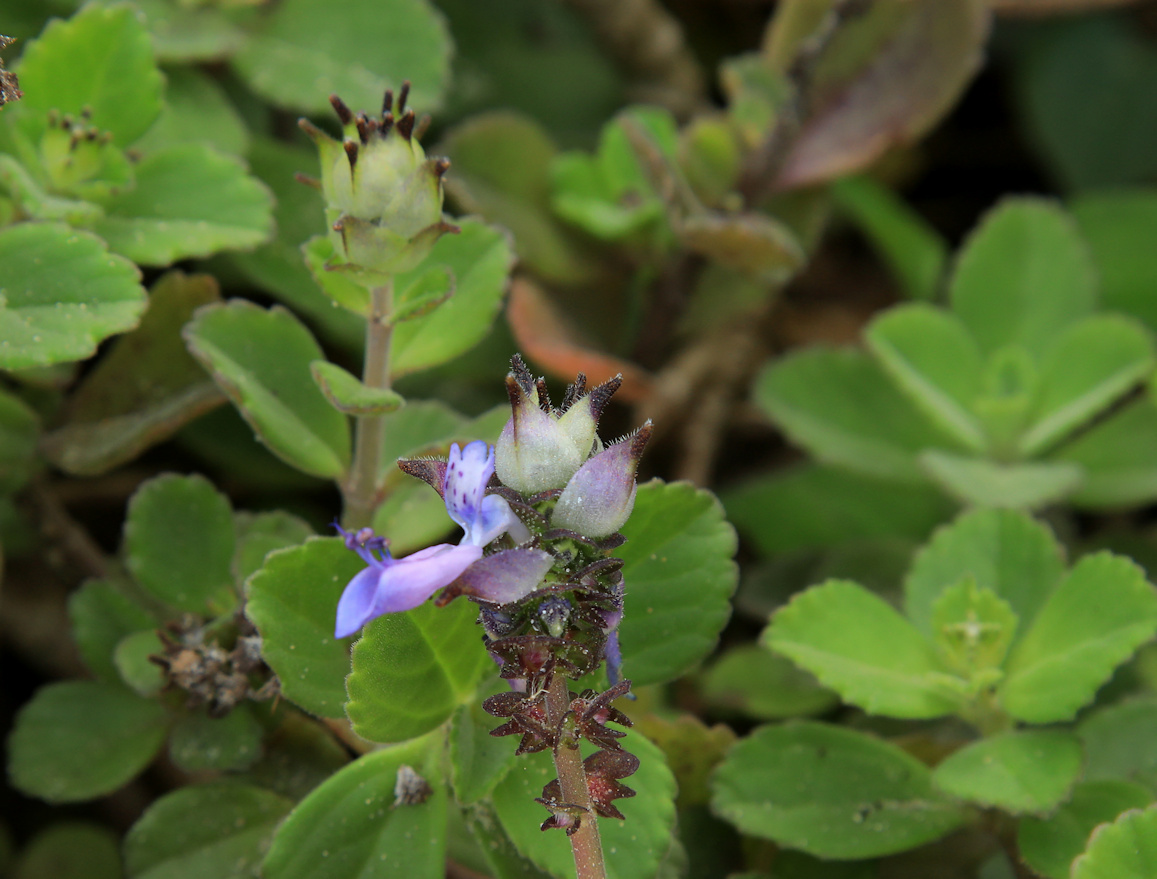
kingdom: Plantae
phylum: Tracheophyta
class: Magnoliopsida
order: Lamiales
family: Lamiaceae
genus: Coleus
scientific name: Coleus neochilus
